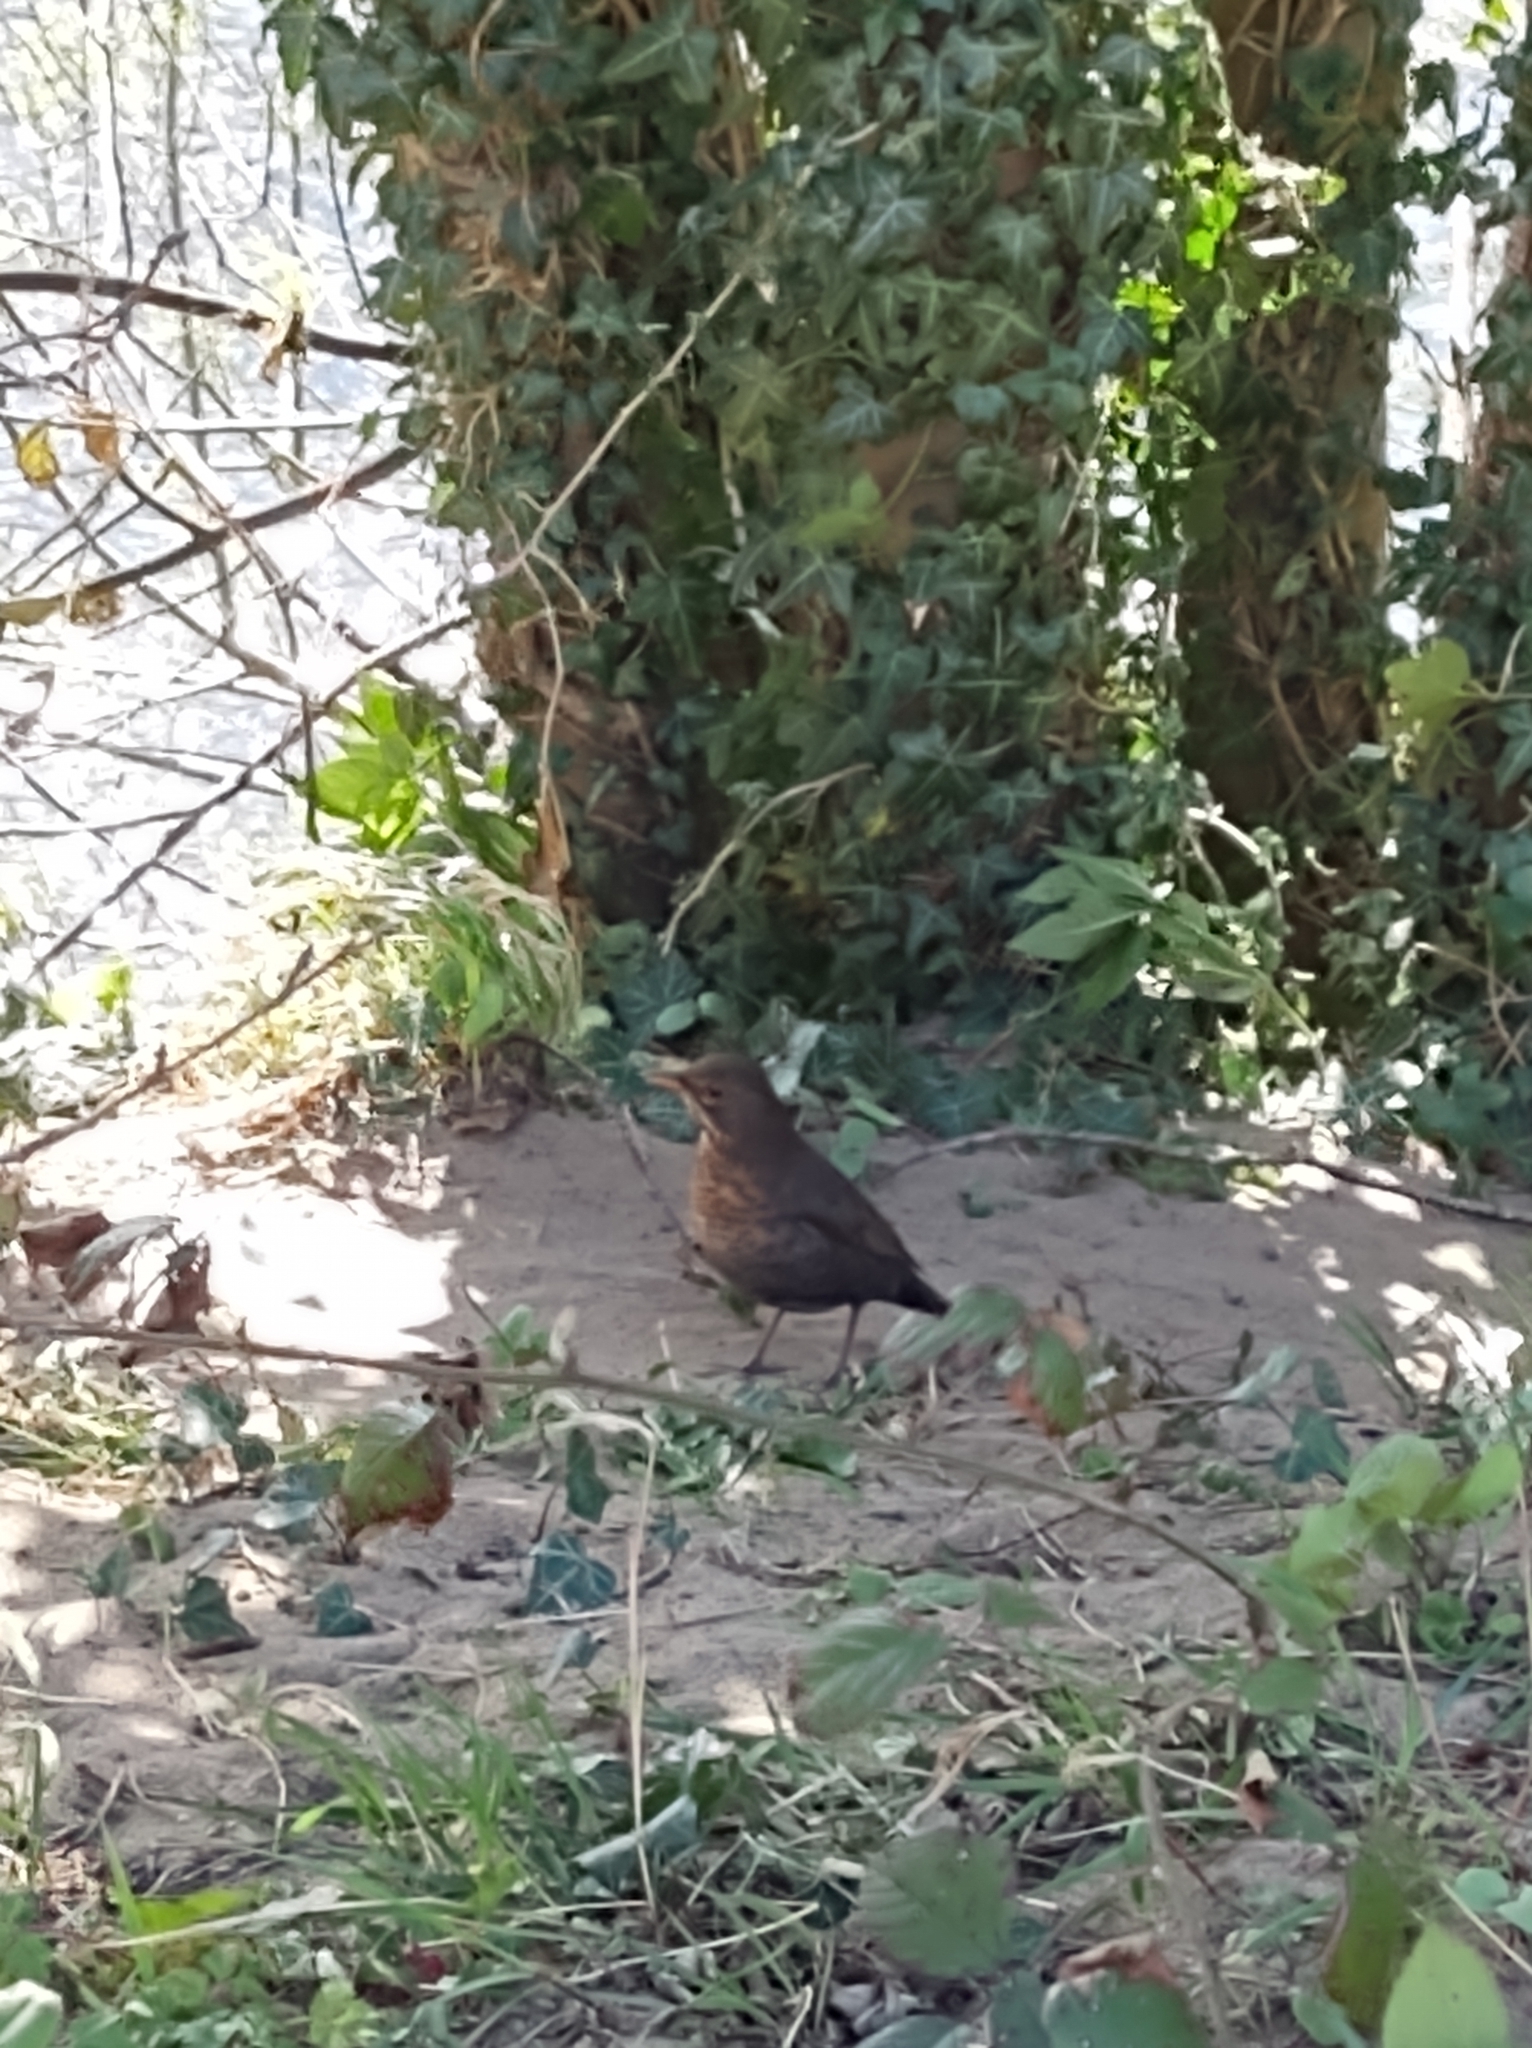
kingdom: Animalia
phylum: Chordata
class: Aves
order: Passeriformes
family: Turdidae
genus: Turdus
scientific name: Turdus merula
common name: Common blackbird
